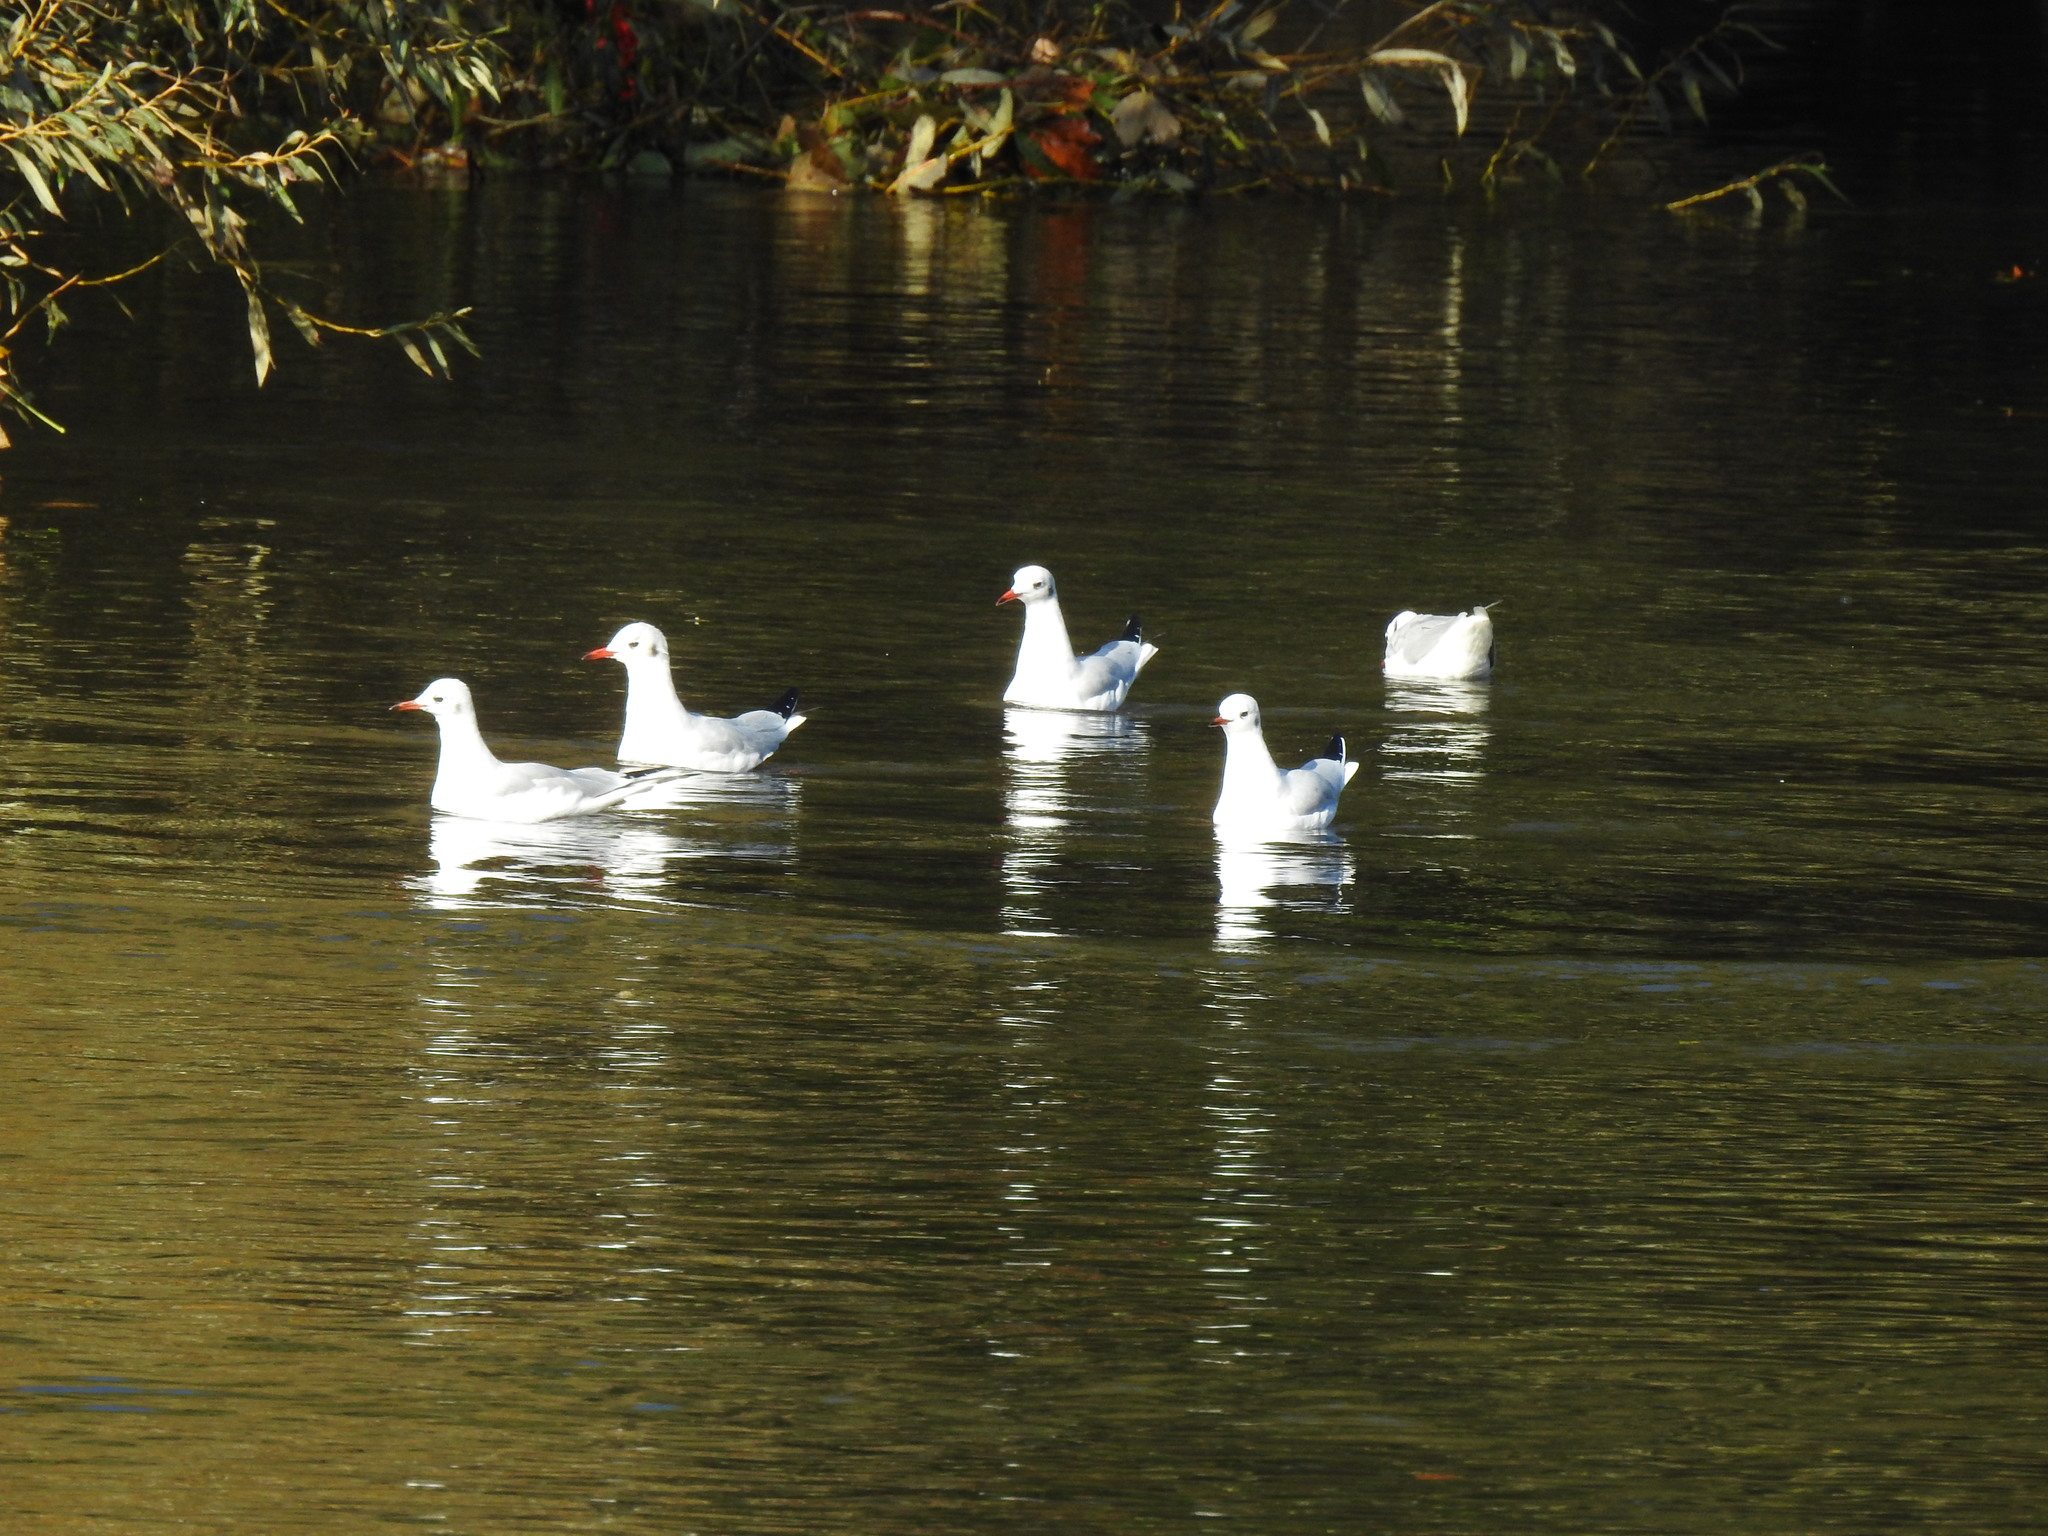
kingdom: Animalia
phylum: Chordata
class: Aves
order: Charadriiformes
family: Laridae
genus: Chroicocephalus
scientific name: Chroicocephalus ridibundus
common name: Black-headed gull
